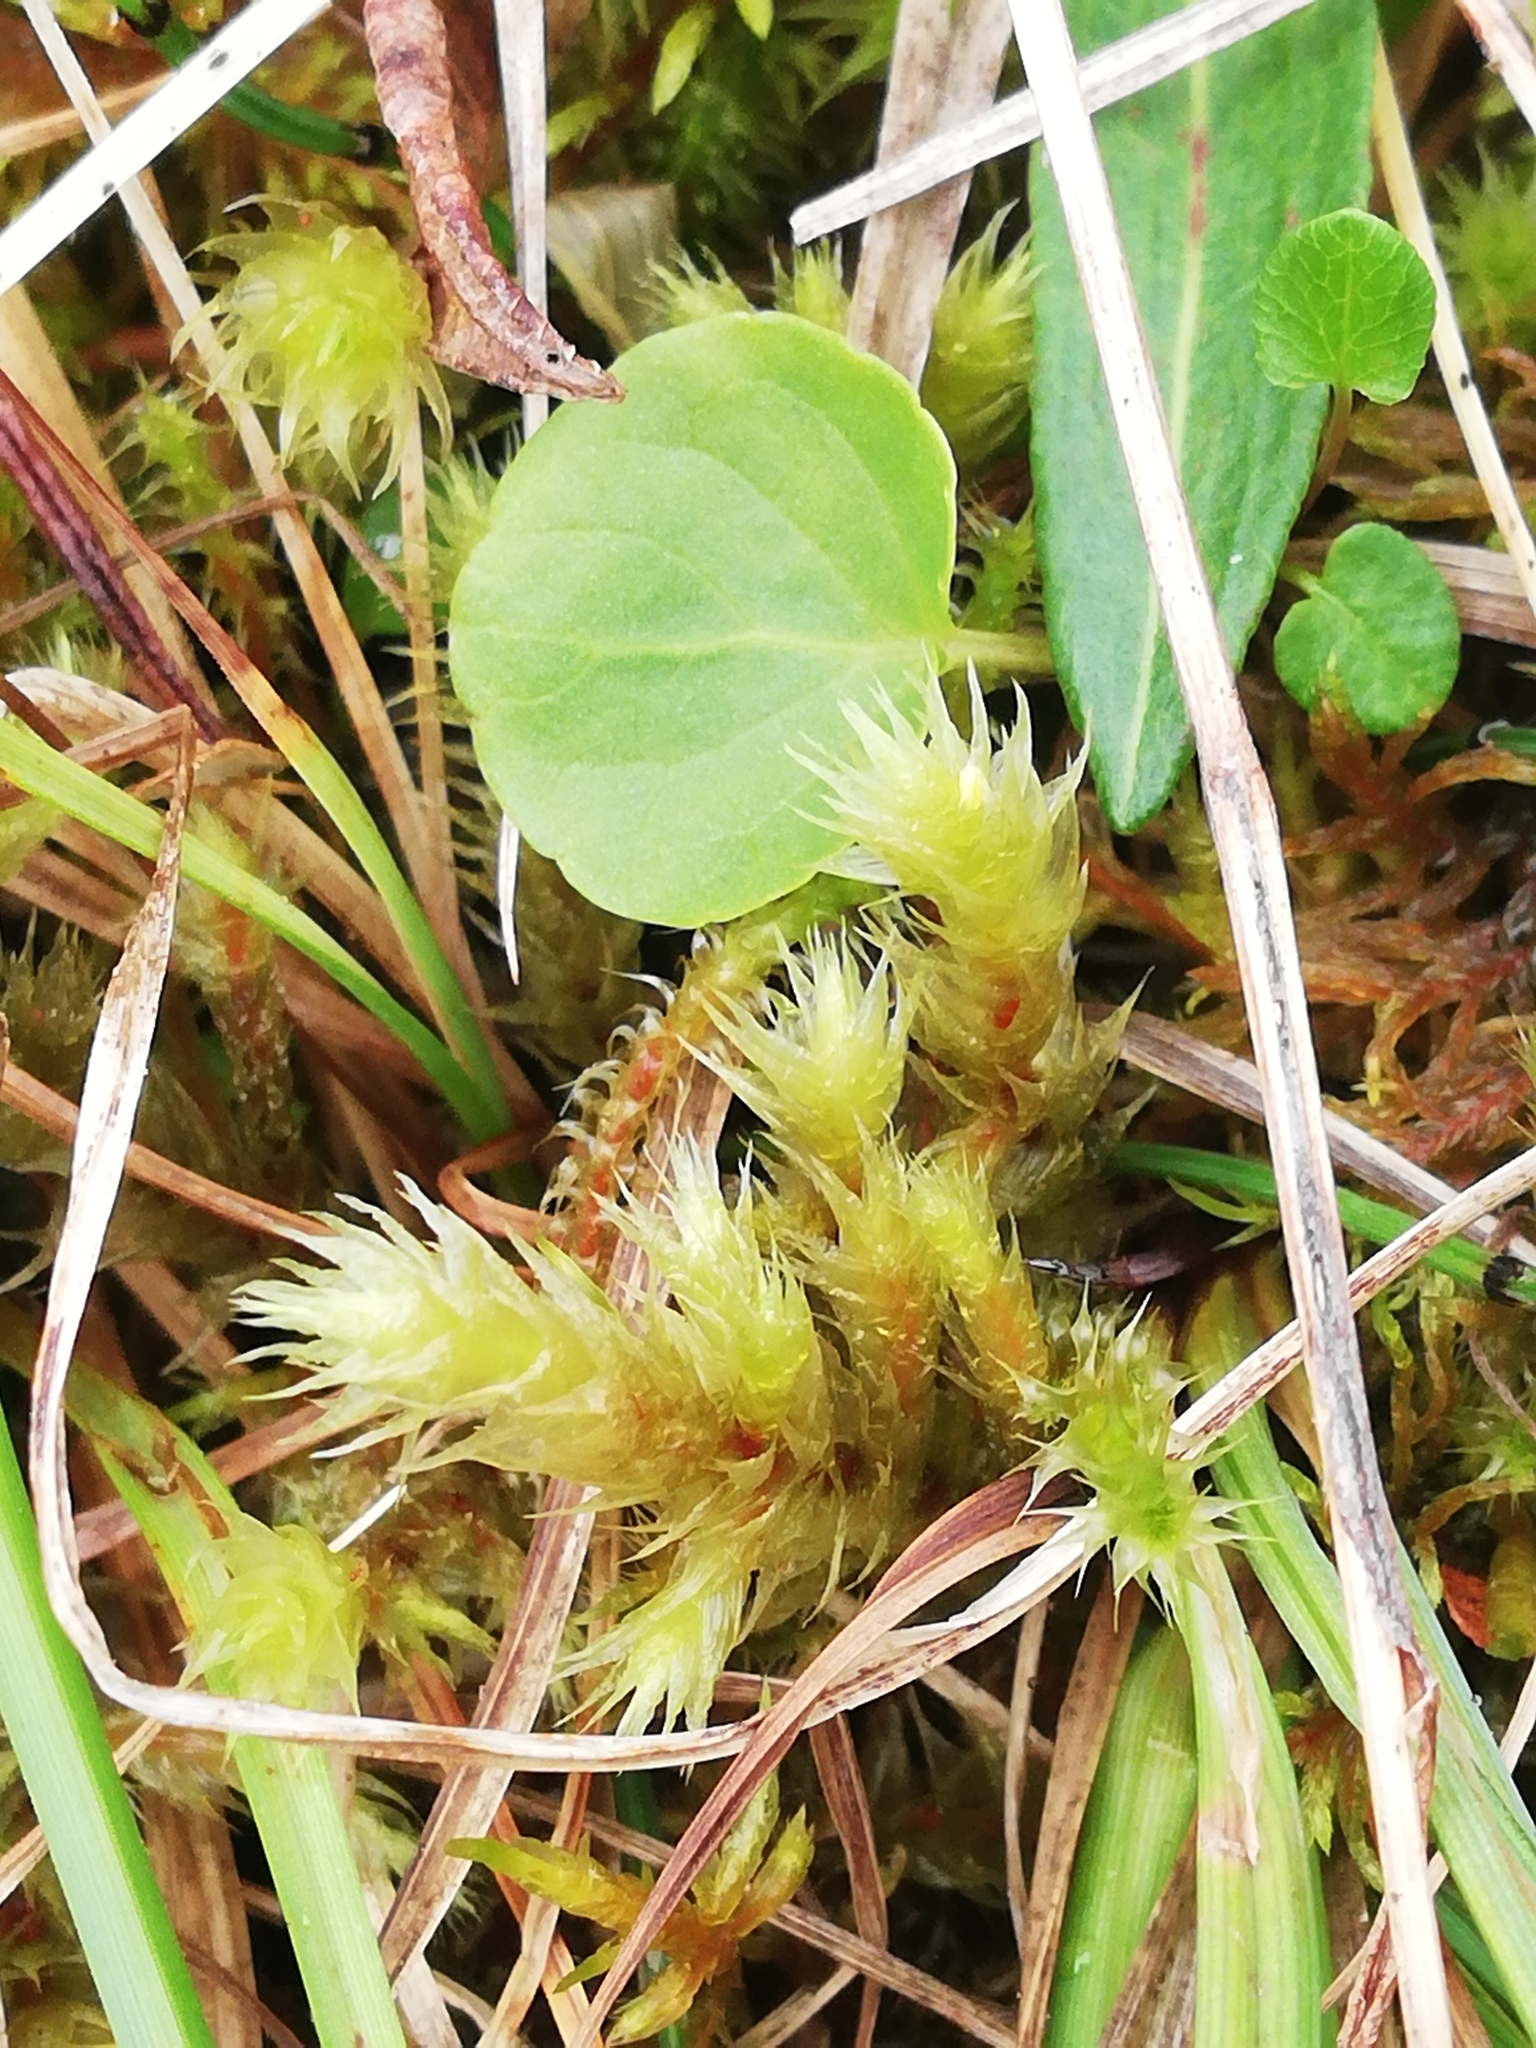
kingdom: Plantae
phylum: Bryophyta
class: Bryopsida
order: Hypnales
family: Hylocomiaceae
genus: Hylocomiadelphus
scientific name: Hylocomiadelphus triquetrus
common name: Rough goose neck moss
